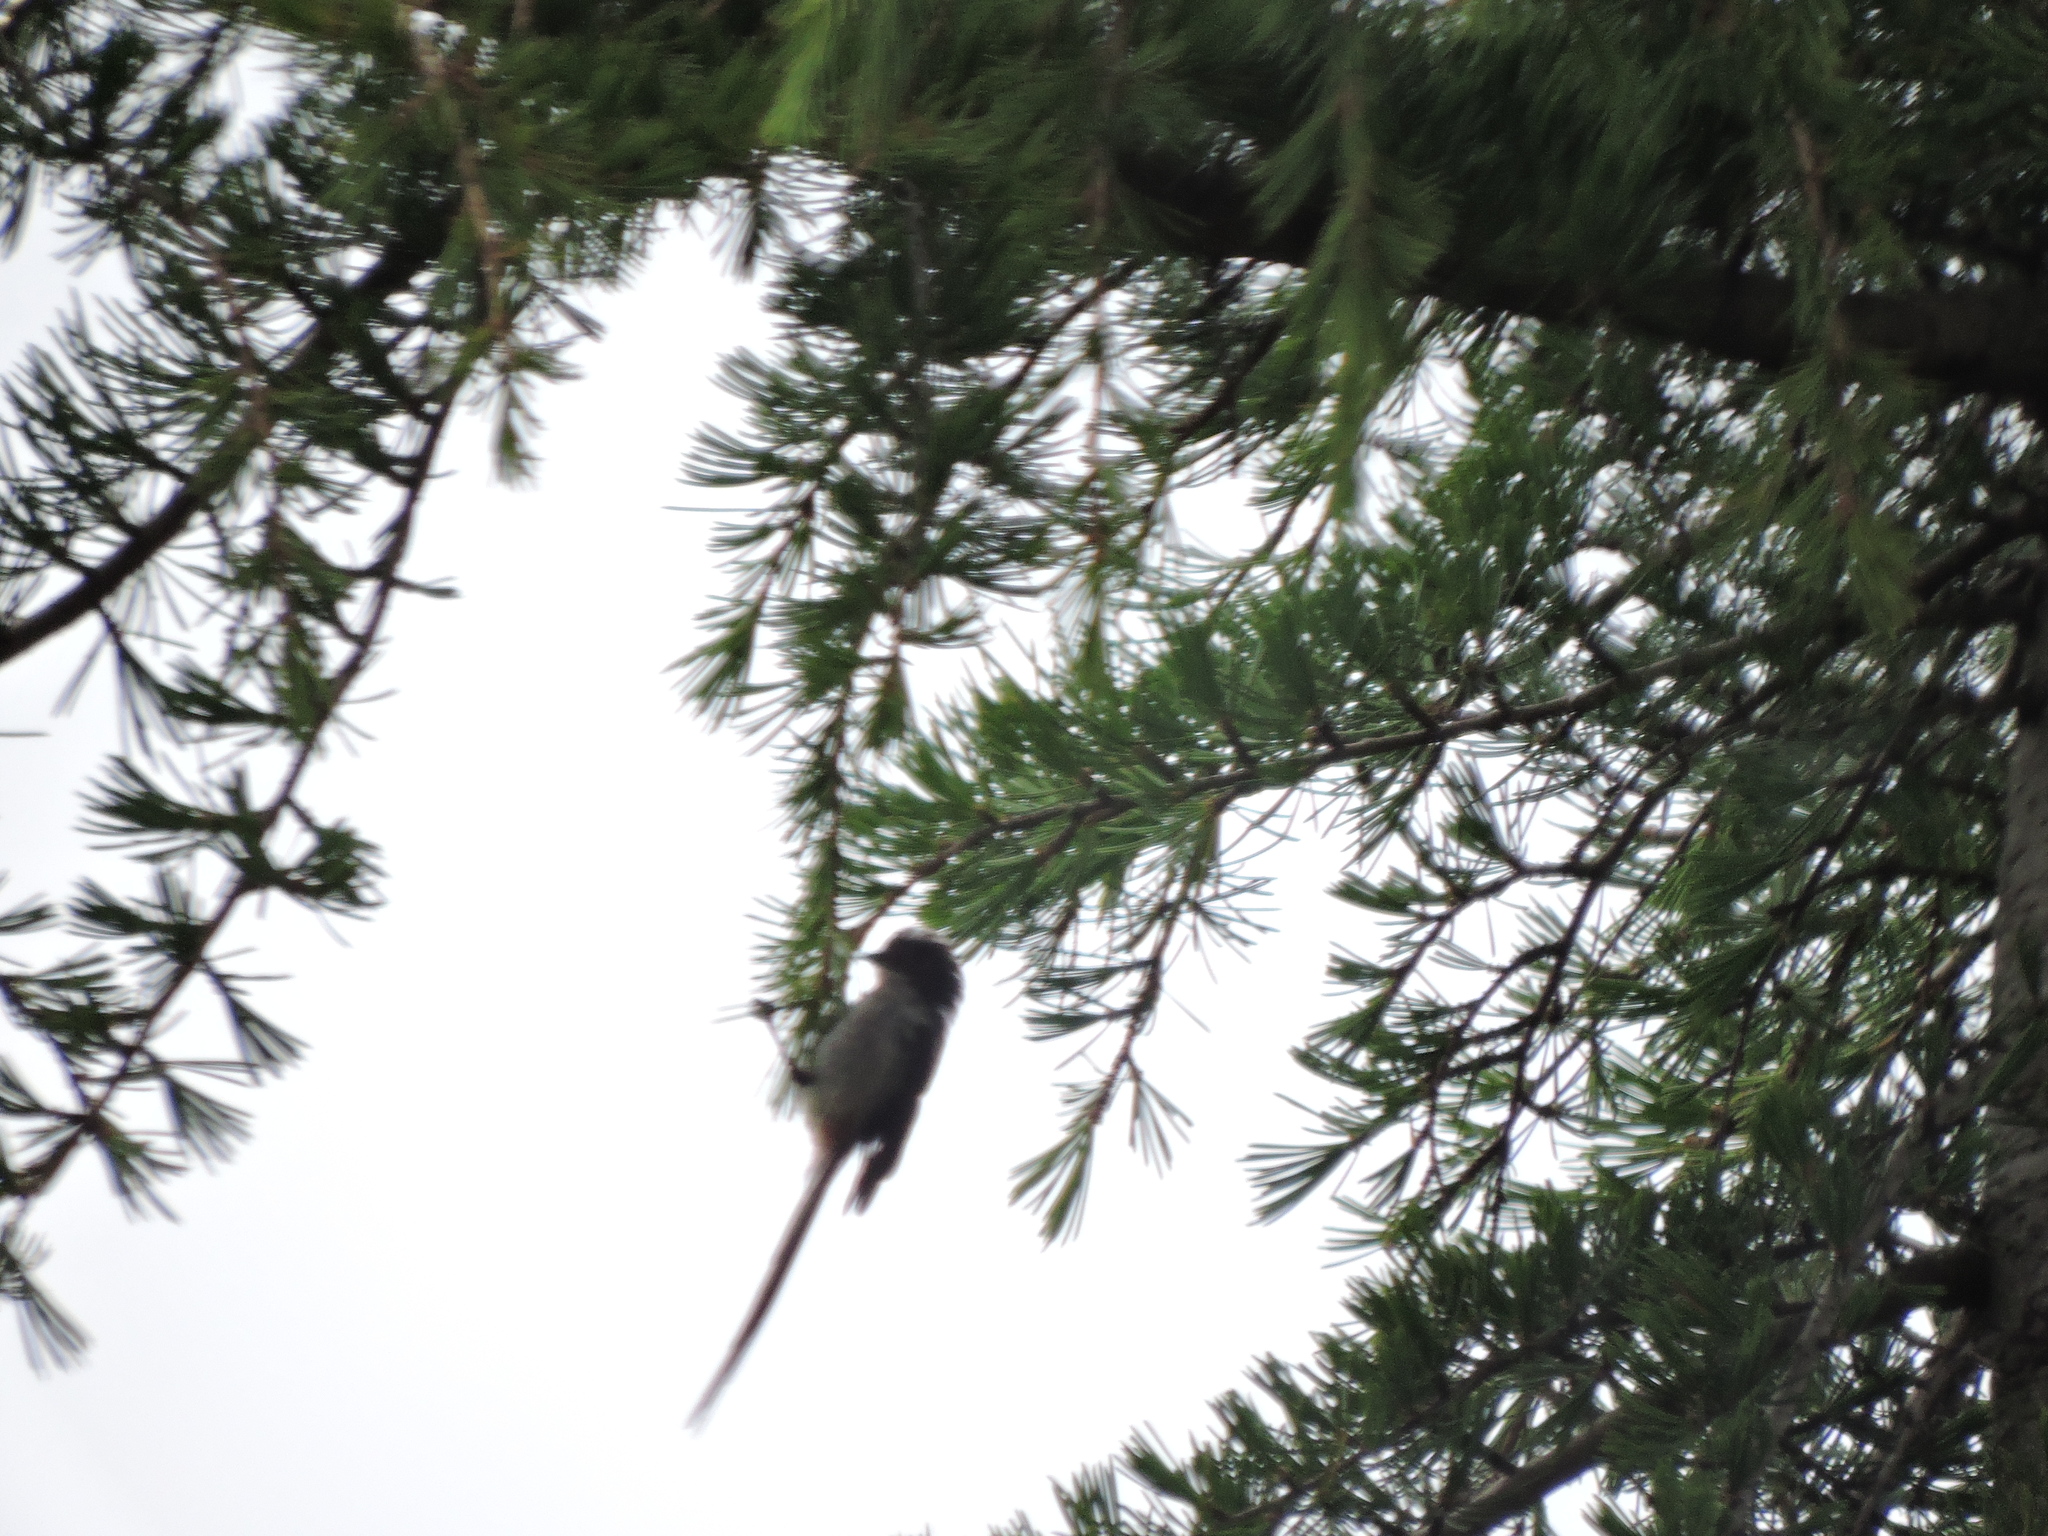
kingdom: Animalia
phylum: Chordata
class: Aves
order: Passeriformes
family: Aegithalidae
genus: Aegithalos
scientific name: Aegithalos caudatus
